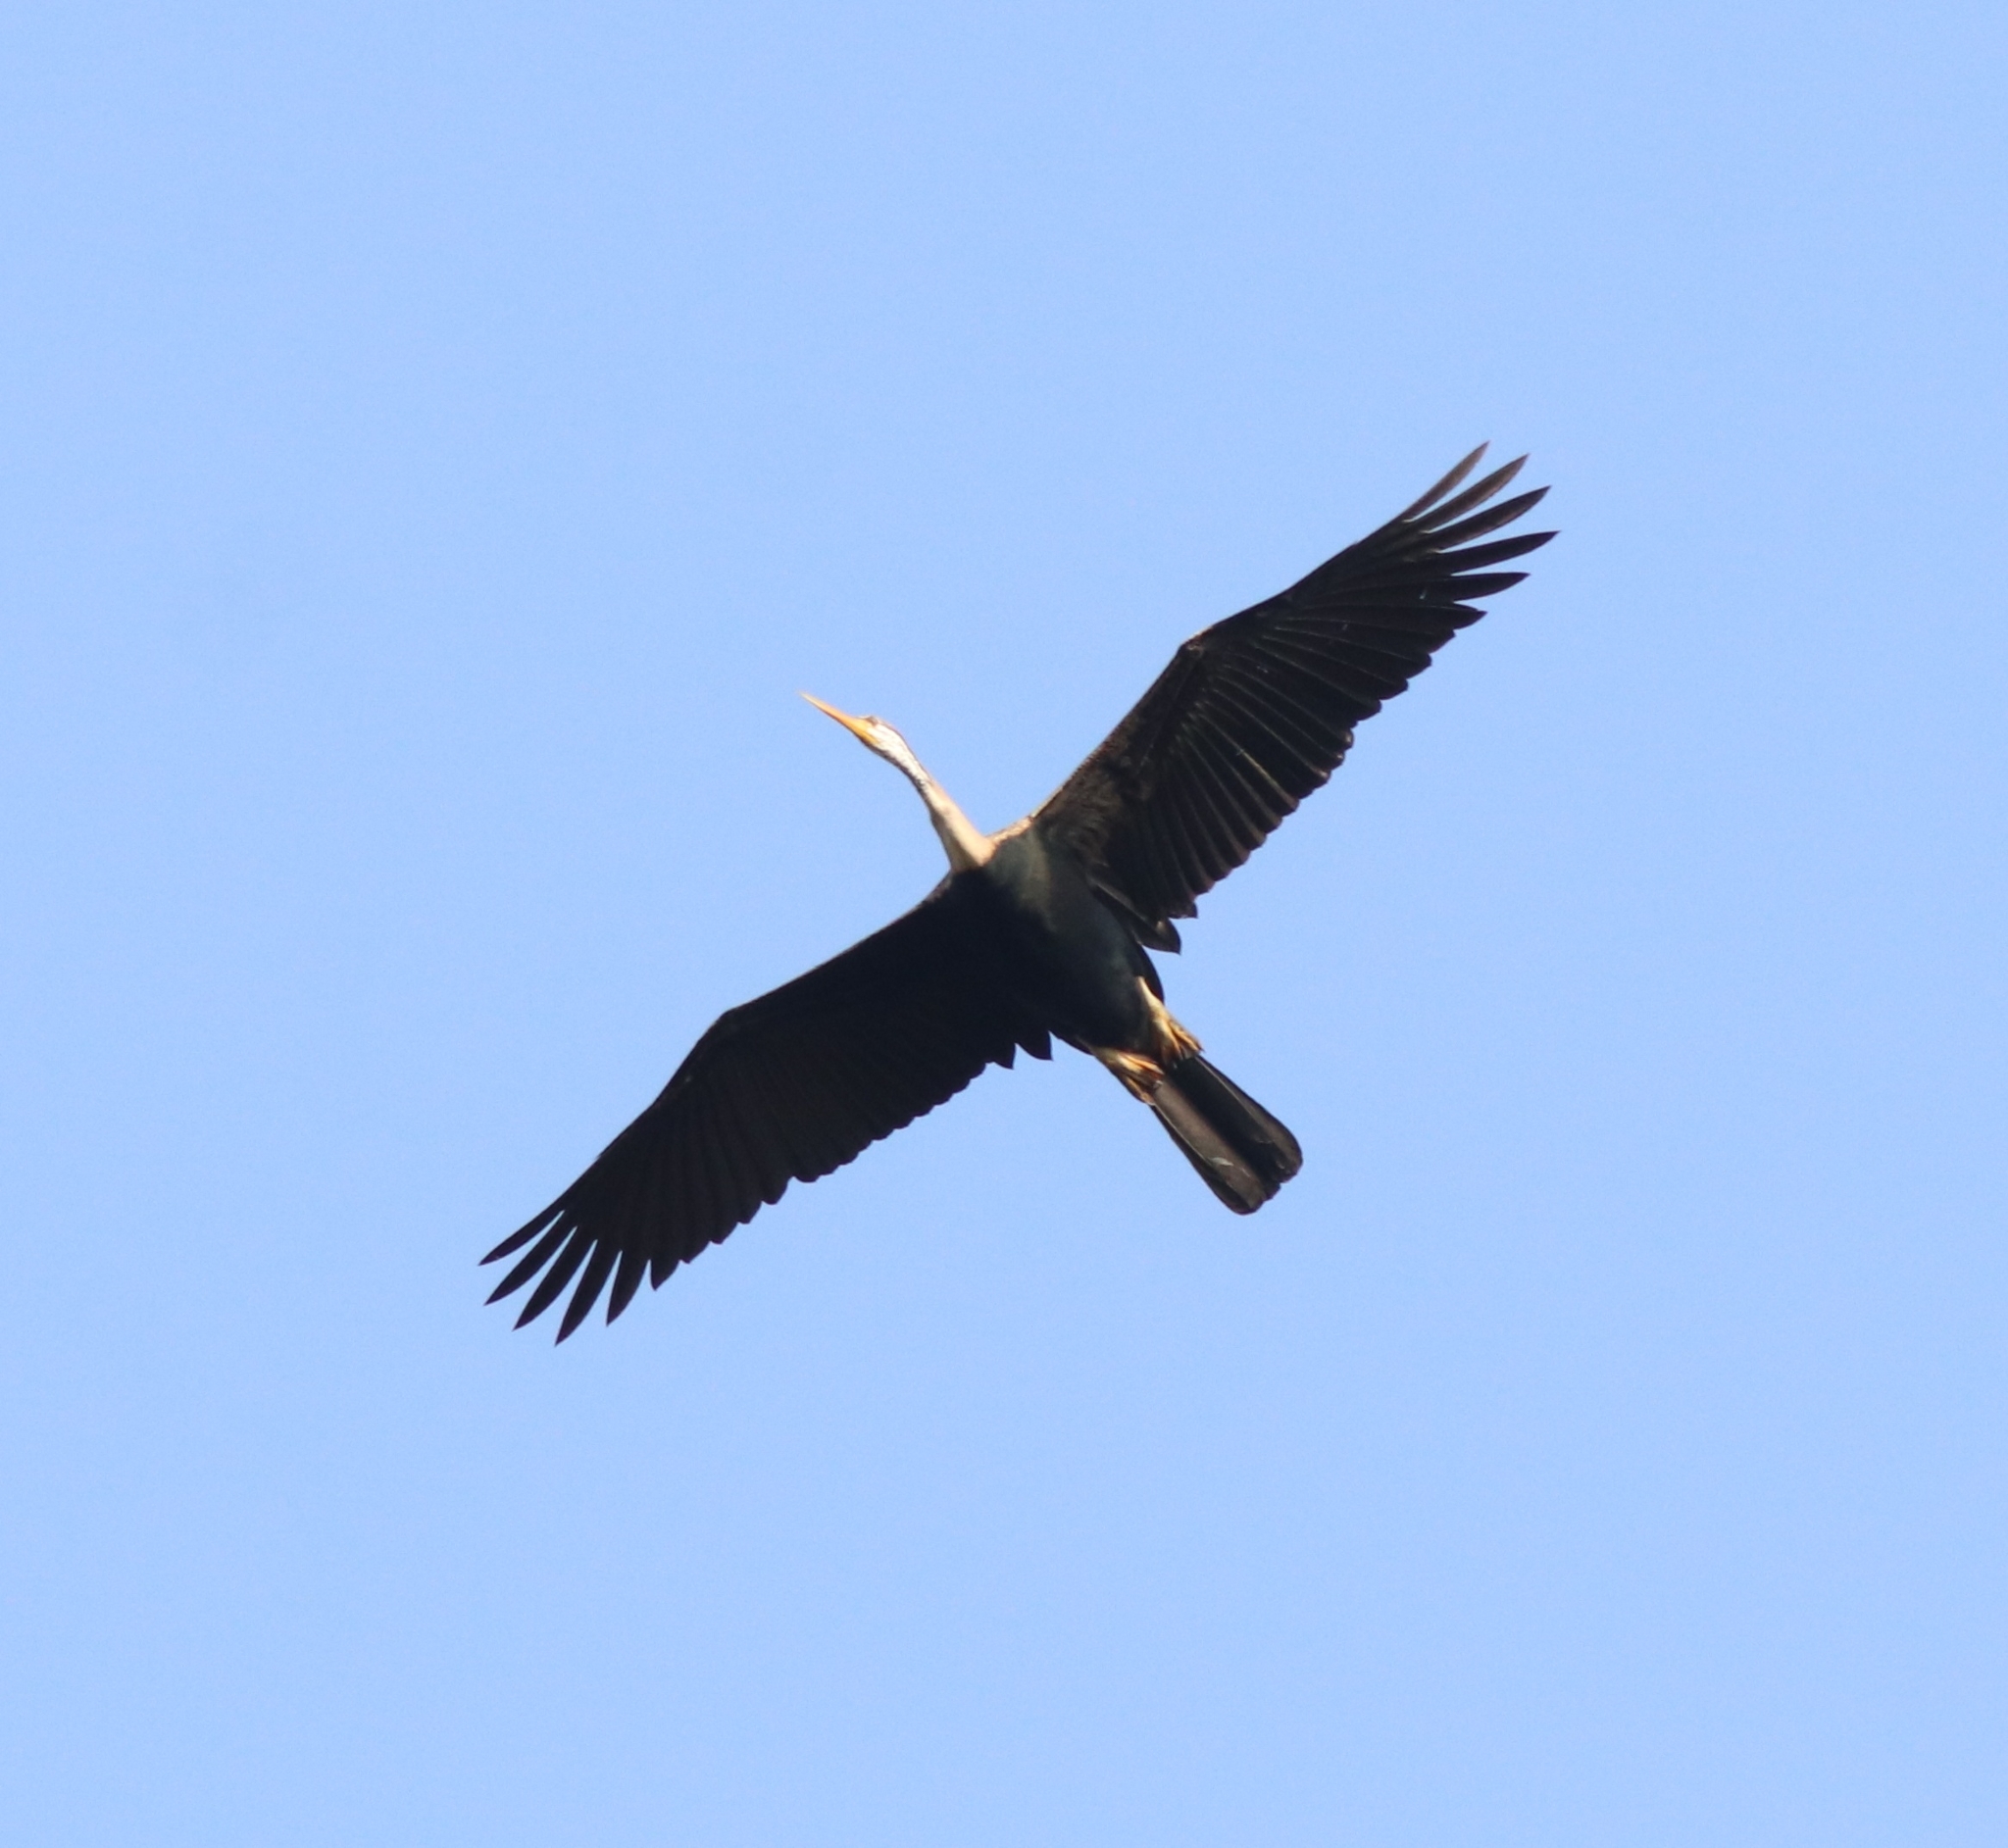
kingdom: Animalia
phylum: Chordata
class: Aves
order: Suliformes
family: Anhingidae
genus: Anhinga
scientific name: Anhinga melanogaster
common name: Oriental darter
